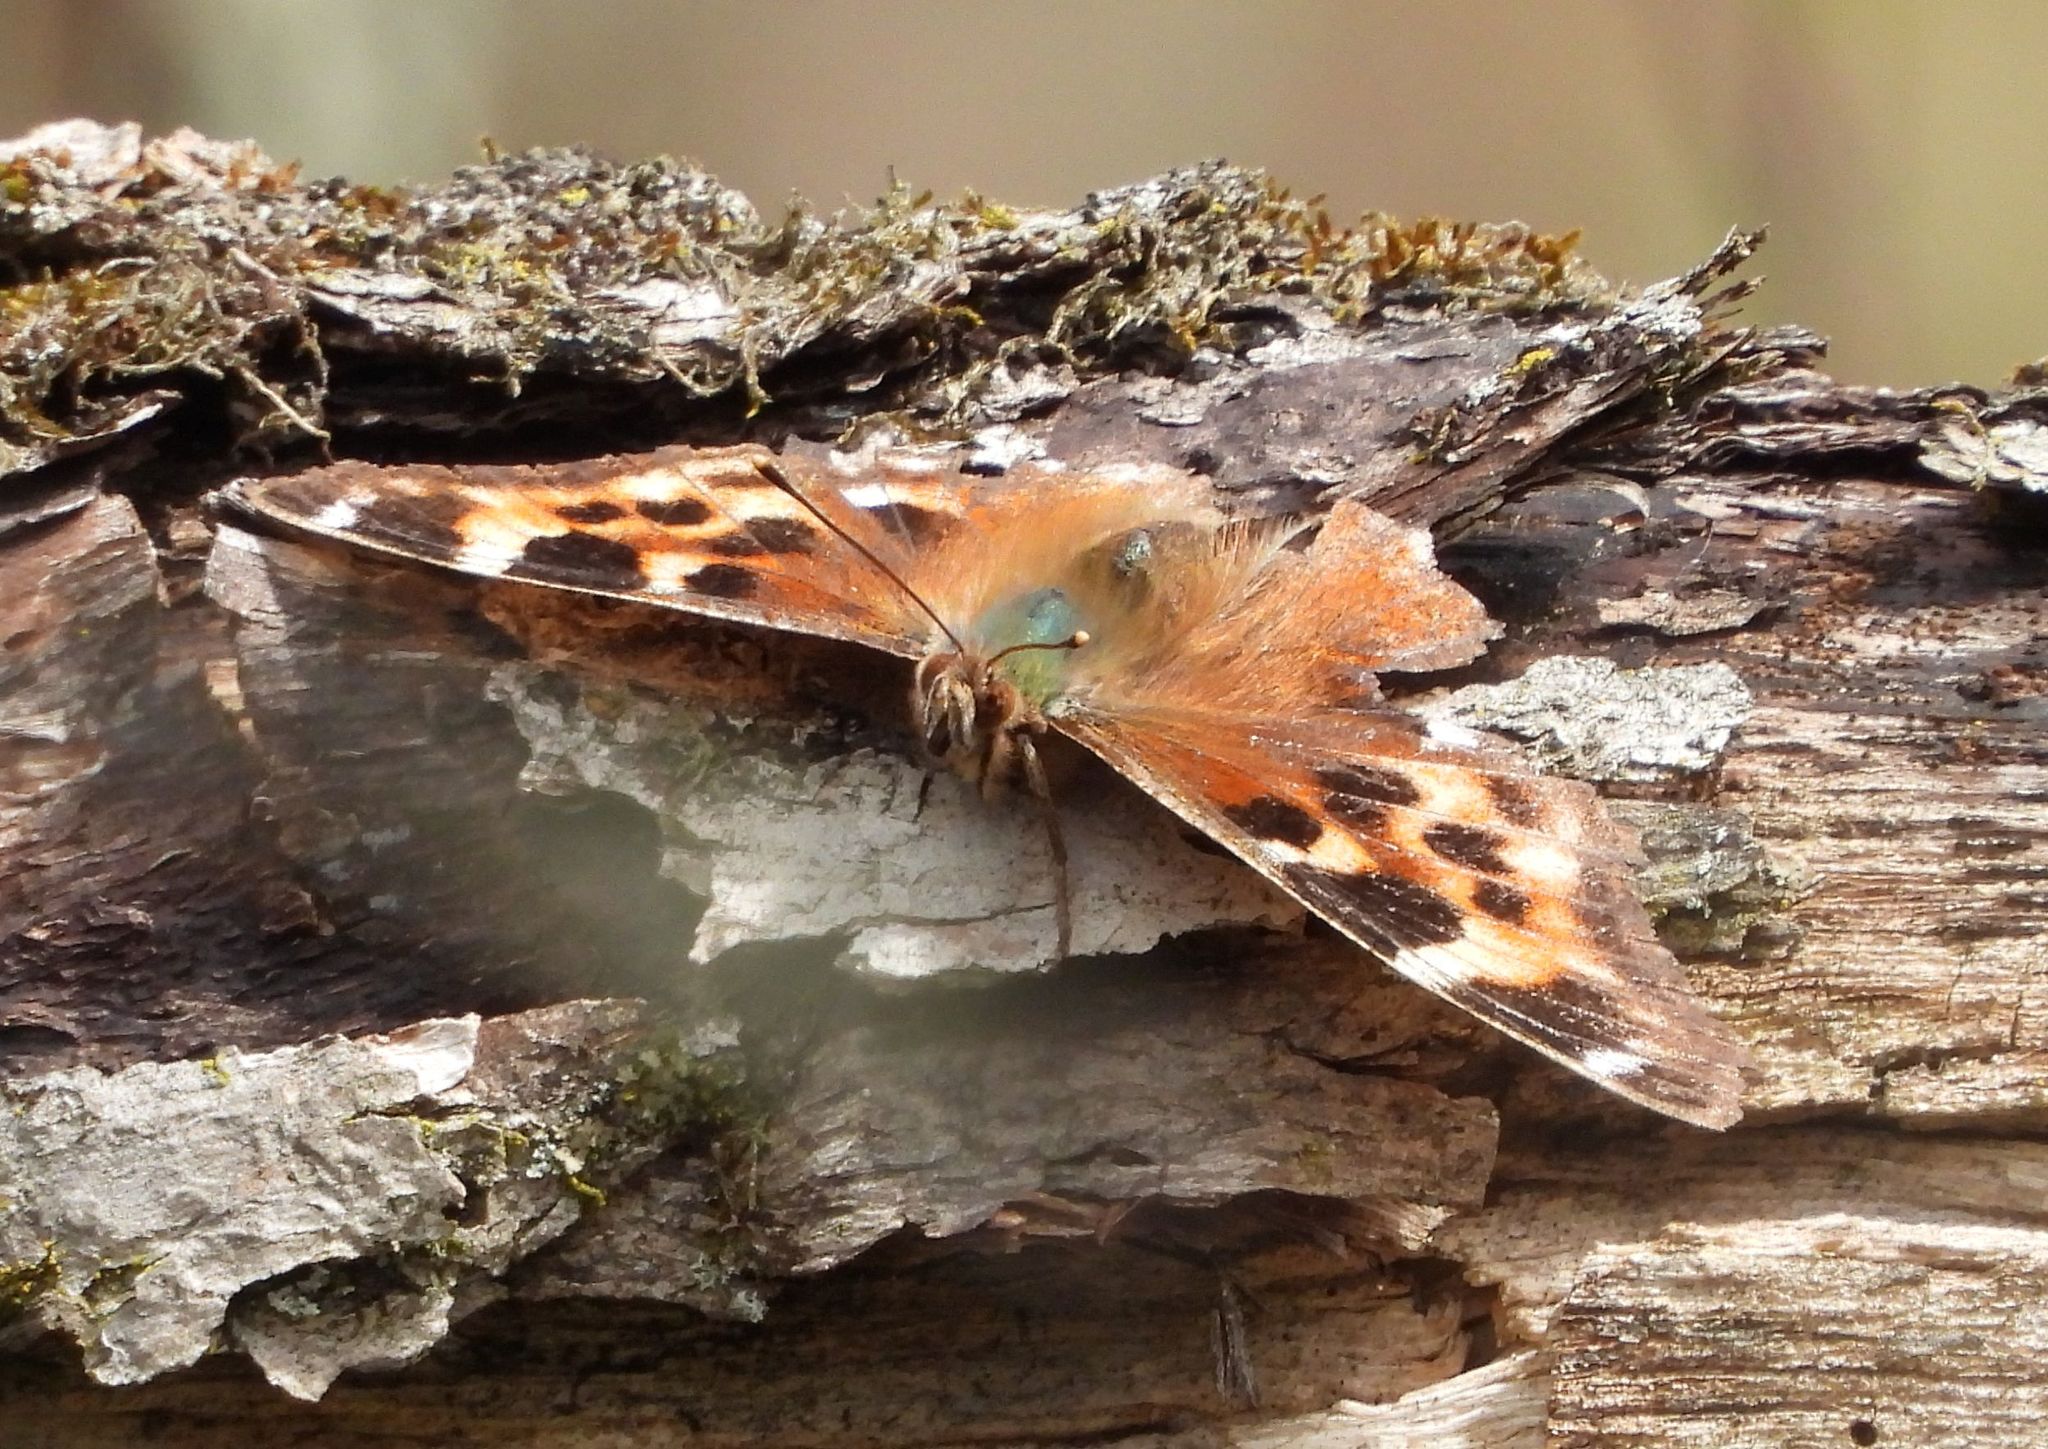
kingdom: Animalia
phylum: Arthropoda
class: Insecta
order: Lepidoptera
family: Nymphalidae
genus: Polygonia
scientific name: Polygonia vaualbum
